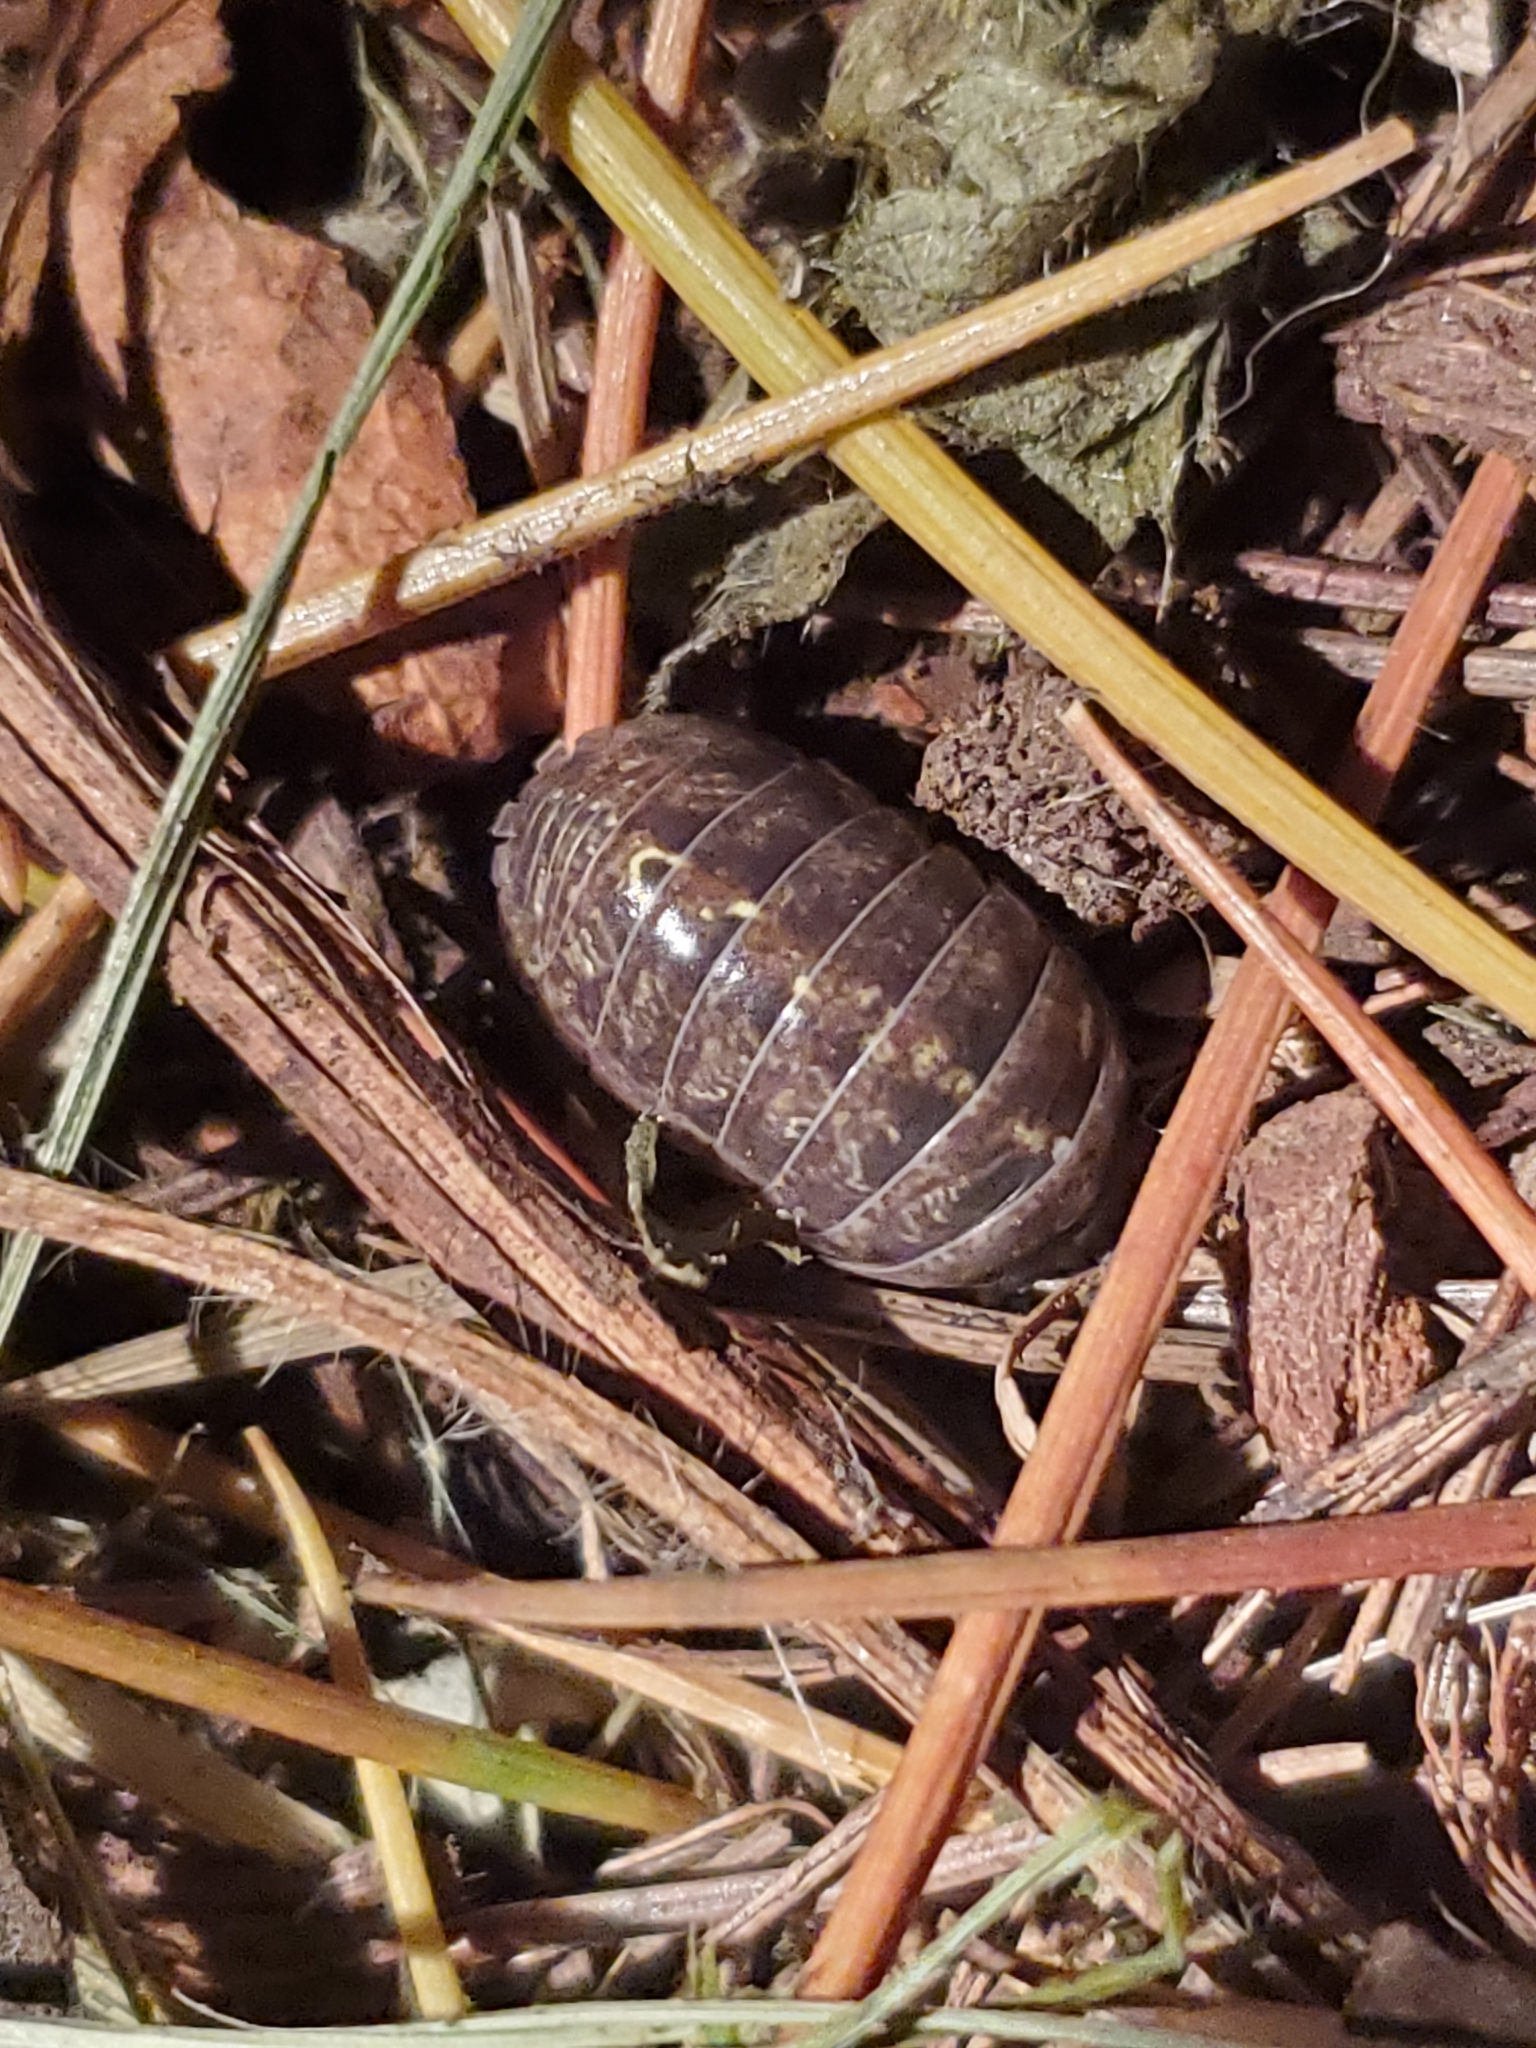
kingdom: Animalia
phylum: Arthropoda
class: Malacostraca
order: Isopoda
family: Armadillidiidae
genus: Armadillidium
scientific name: Armadillidium vulgare
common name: Common pill woodlouse
